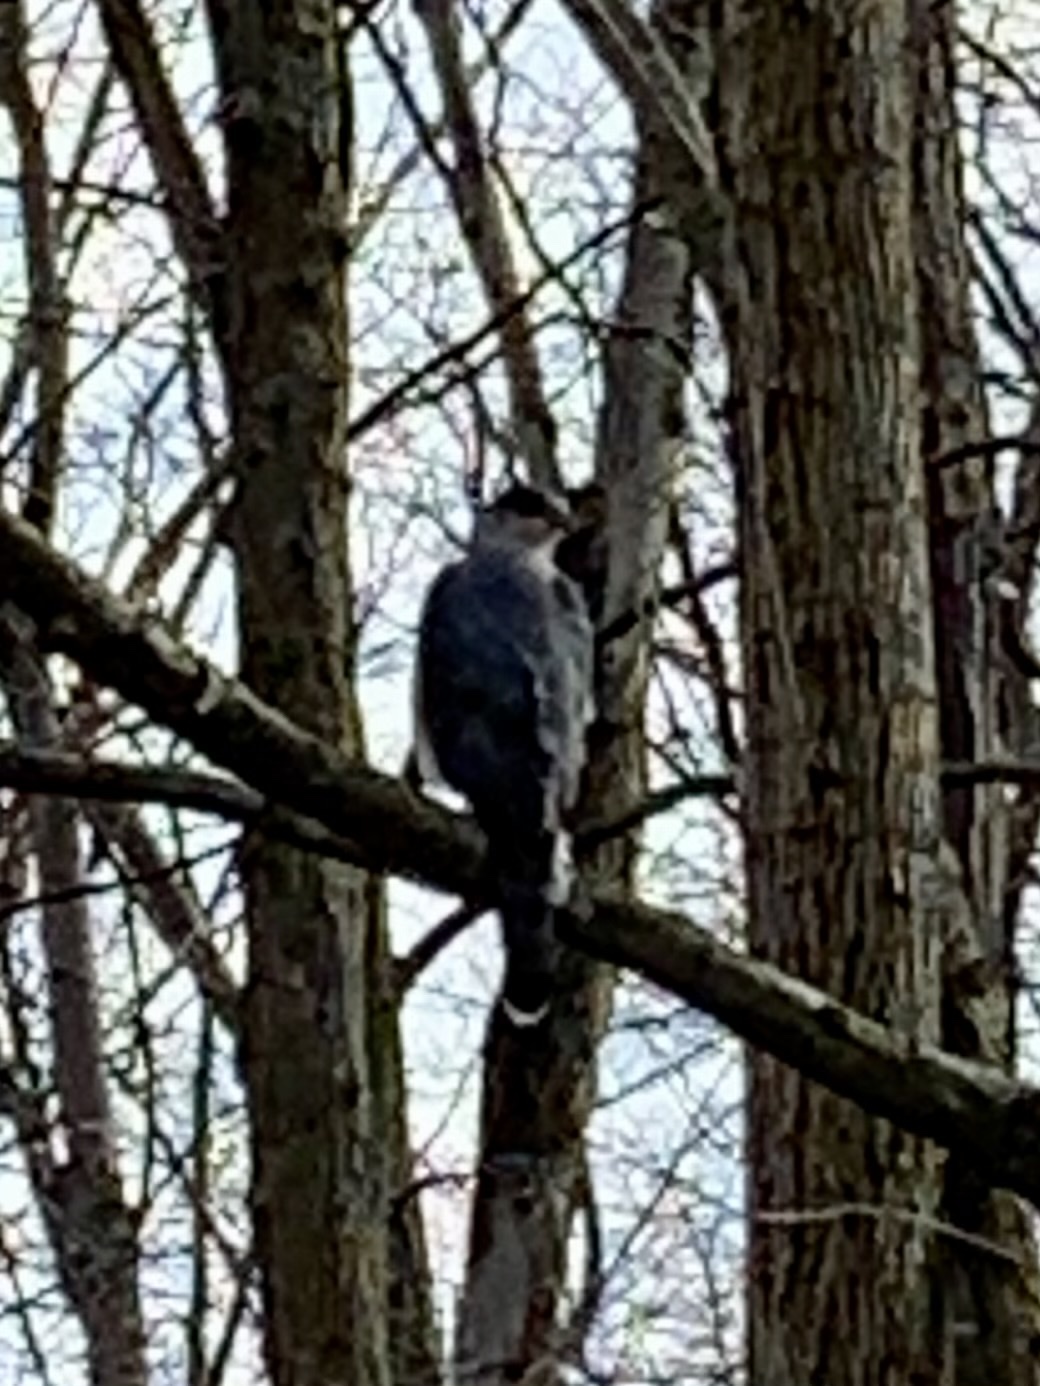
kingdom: Animalia
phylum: Chordata
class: Aves
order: Accipitriformes
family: Accipitridae
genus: Accipiter
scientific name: Accipiter cooperii
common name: Cooper's hawk
